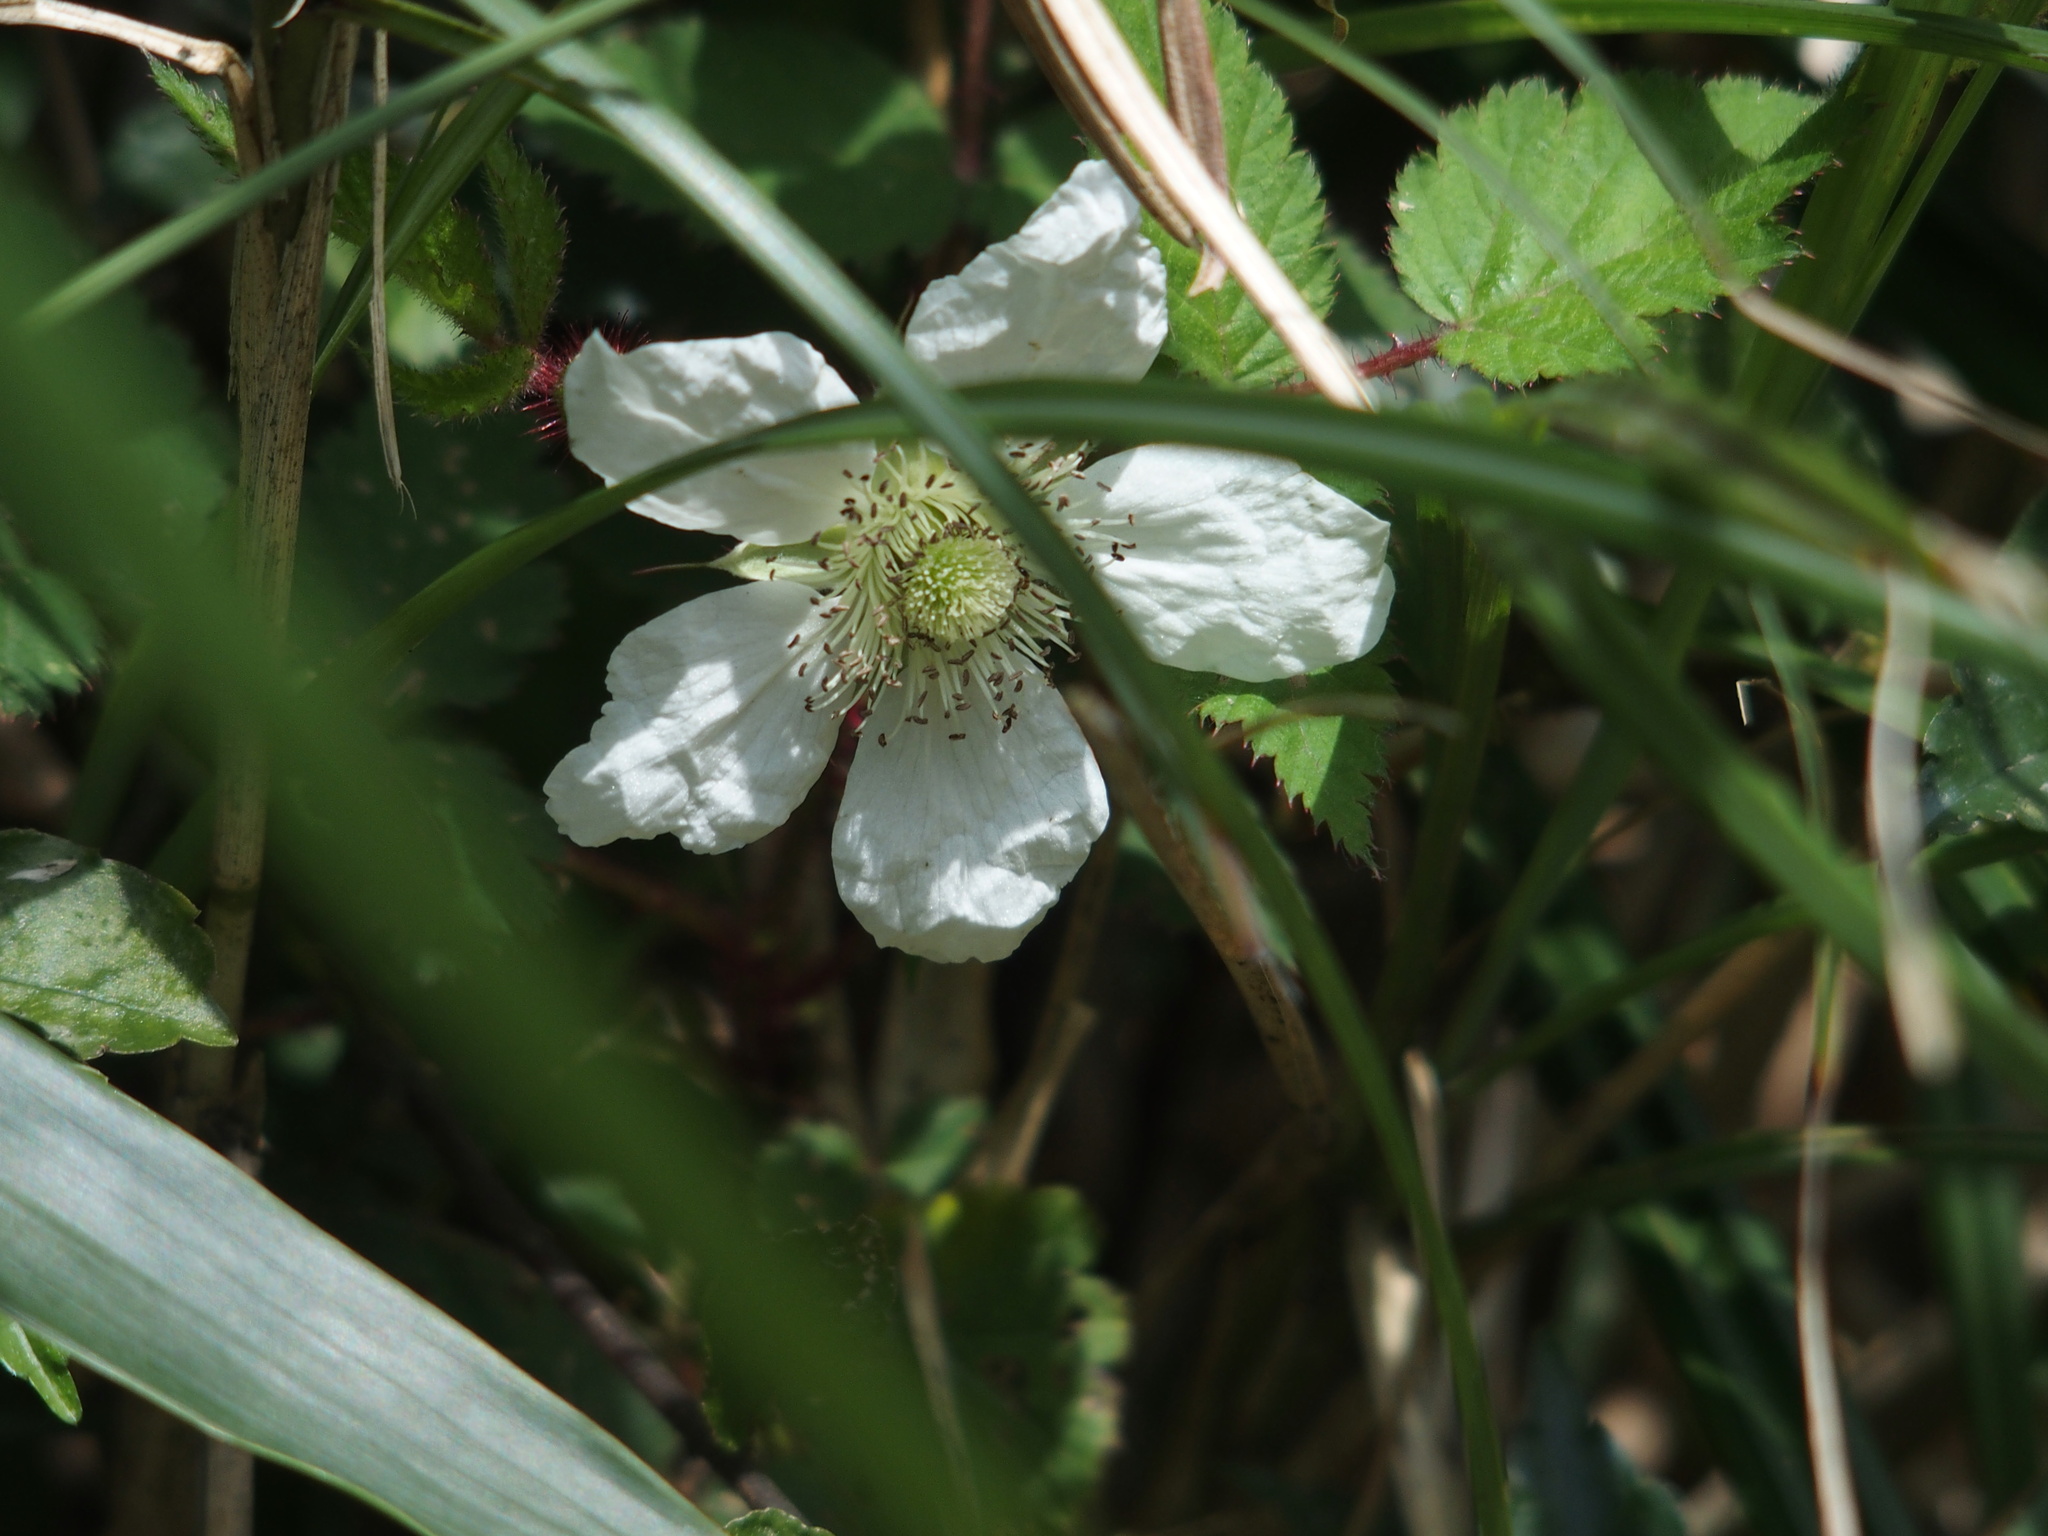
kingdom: Plantae
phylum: Tracheophyta
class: Magnoliopsida
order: Rosales
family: Rosaceae
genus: Rubus
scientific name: Rubus croceacanthus
